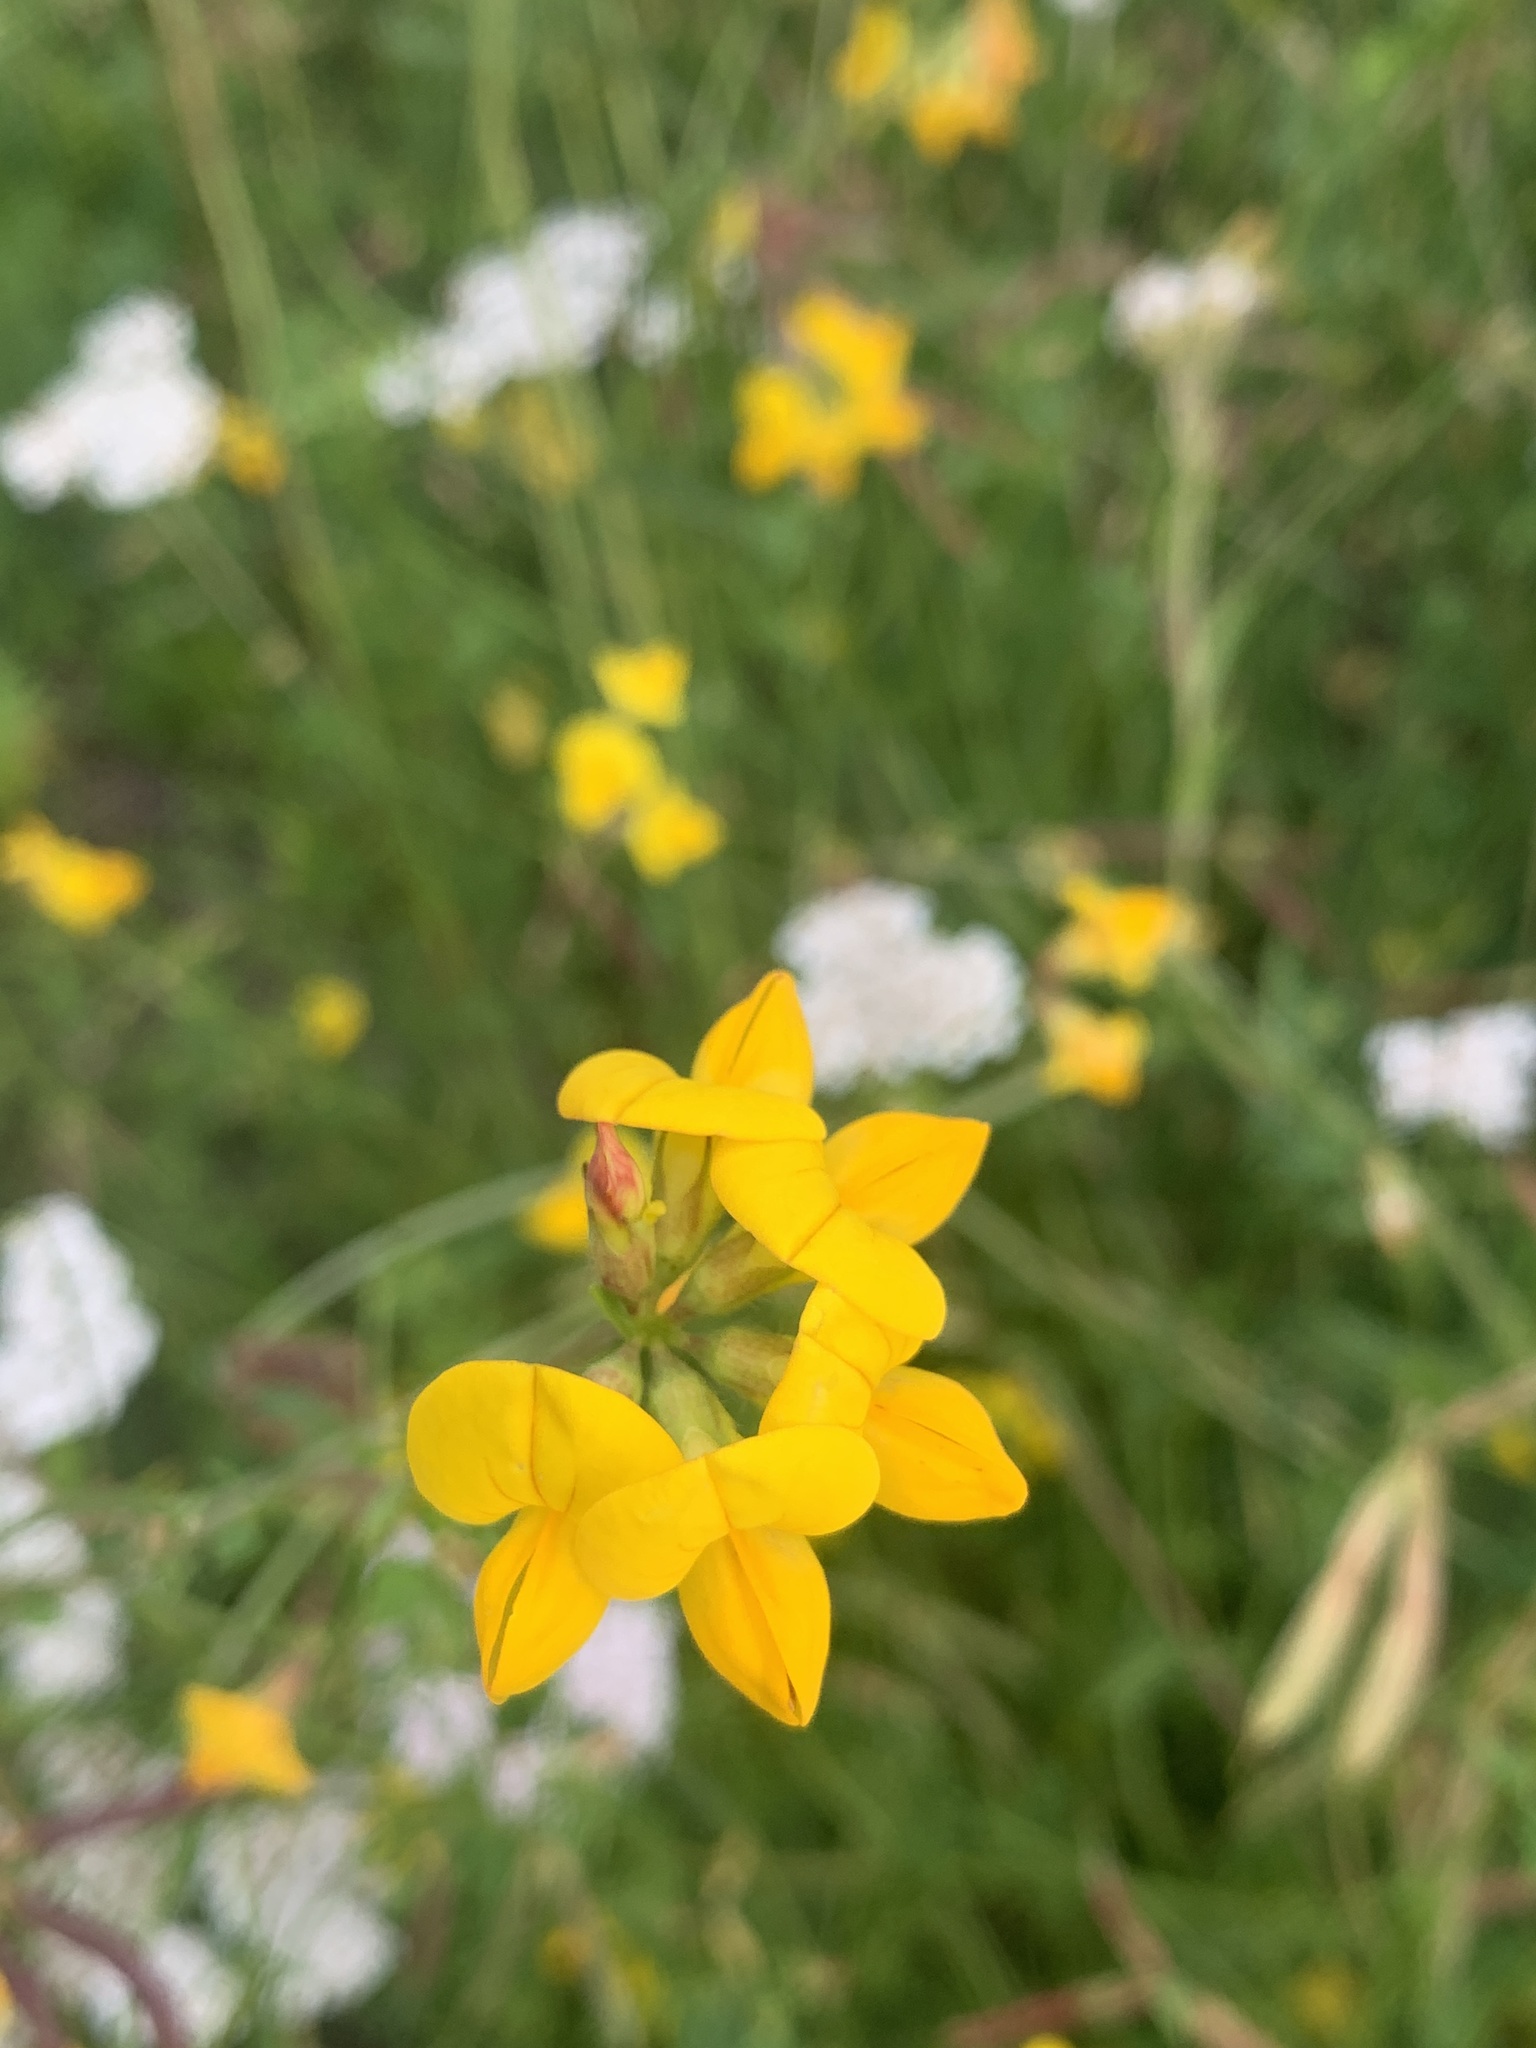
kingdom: Plantae
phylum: Tracheophyta
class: Magnoliopsida
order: Fabales
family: Fabaceae
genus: Lotus
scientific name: Lotus corniculatus
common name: Common bird's-foot-trefoil
